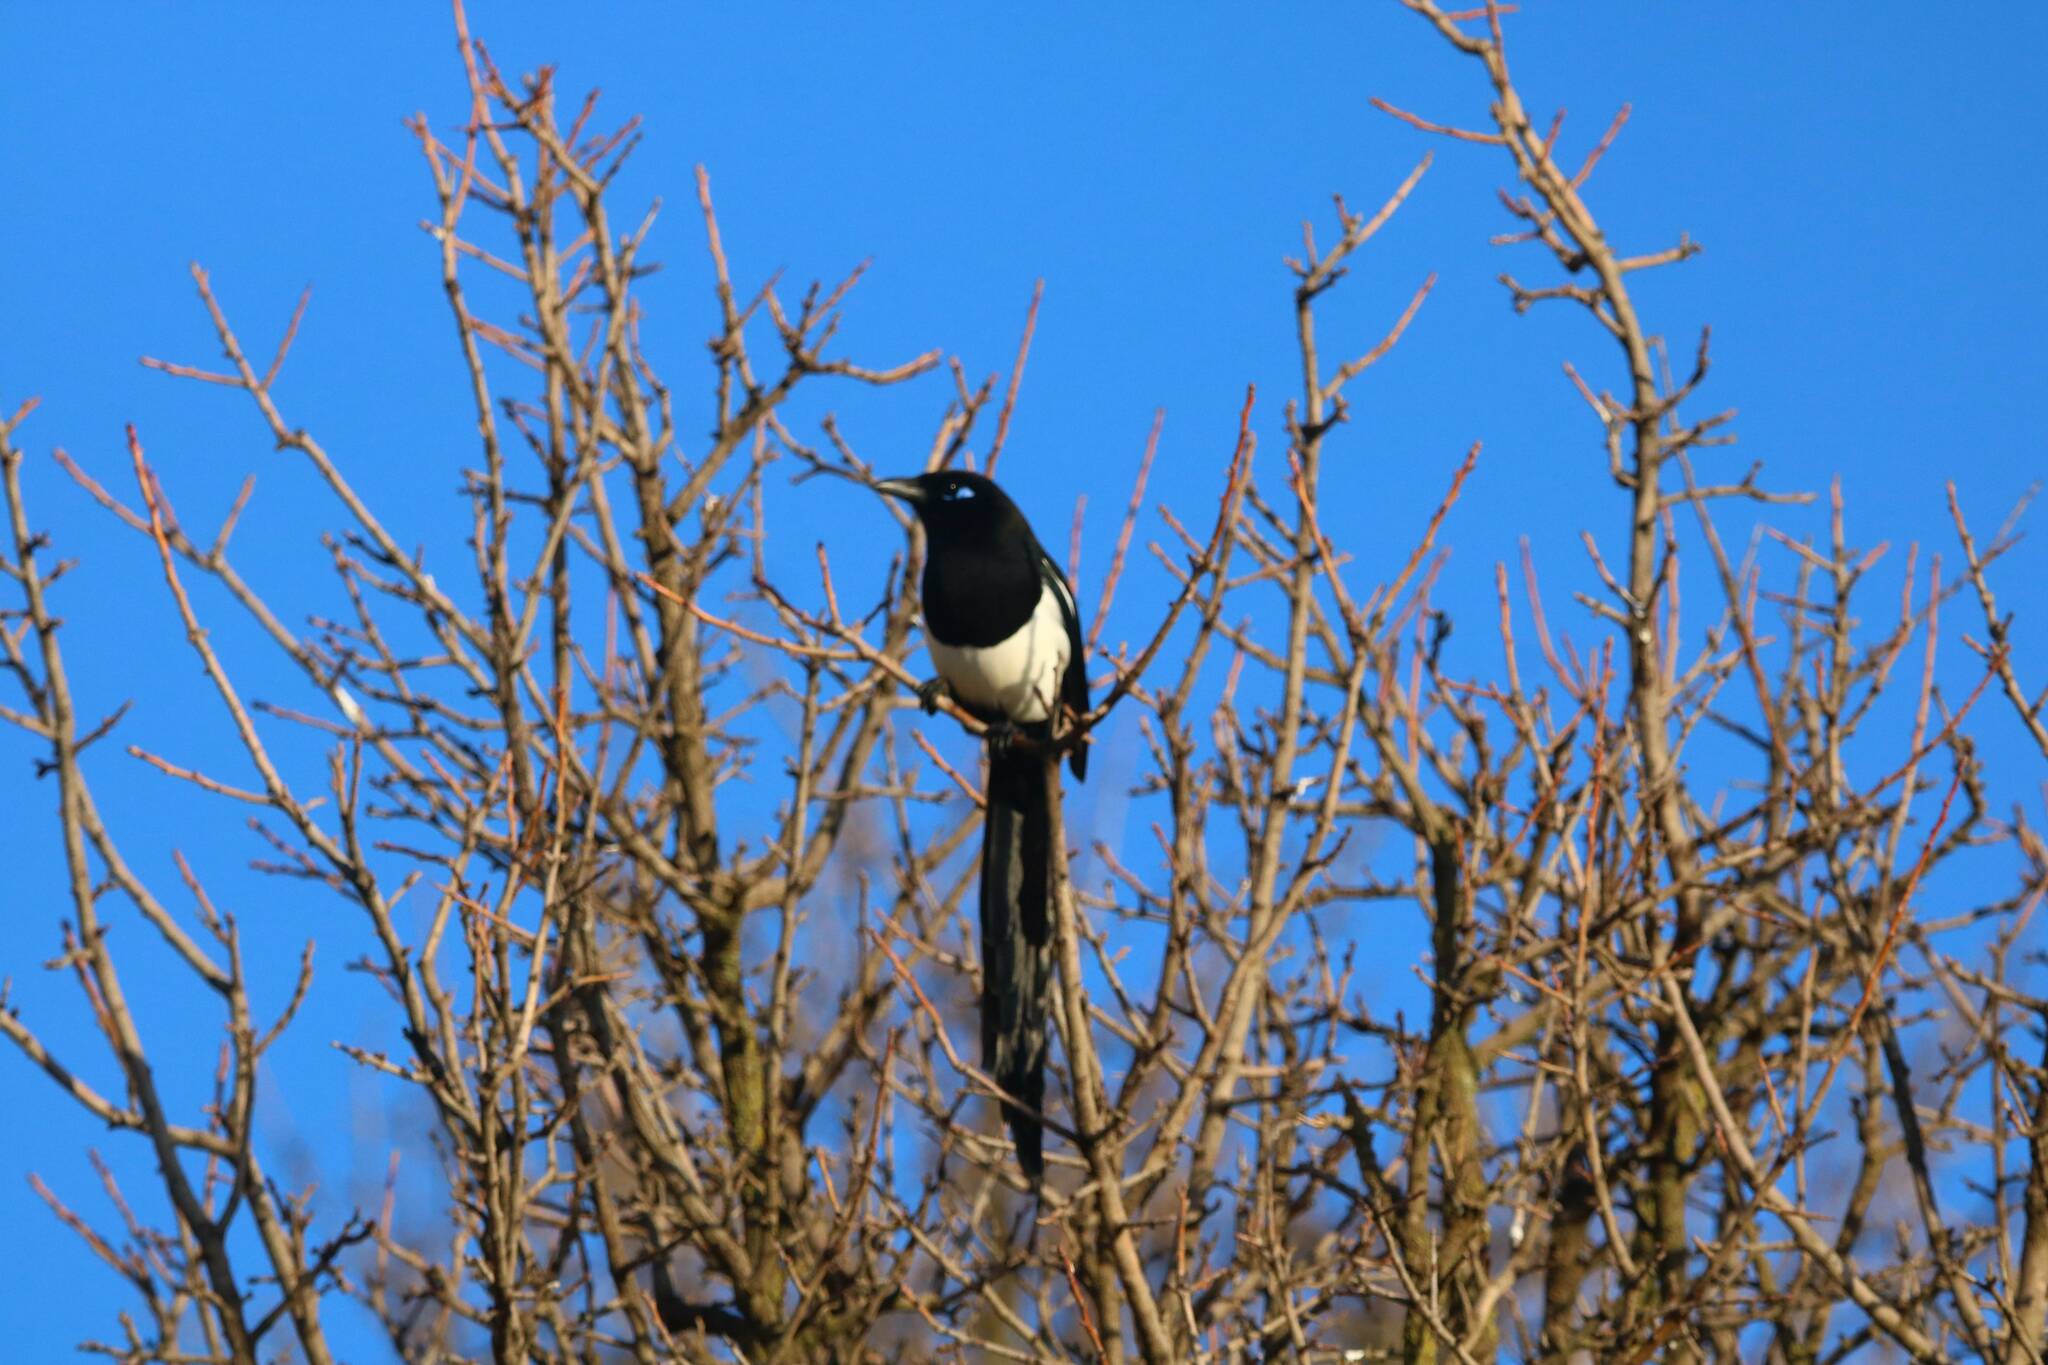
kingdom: Animalia
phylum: Chordata
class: Aves
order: Passeriformes
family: Corvidae
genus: Pica
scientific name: Pica mauritanica
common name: Maghreb magpie
